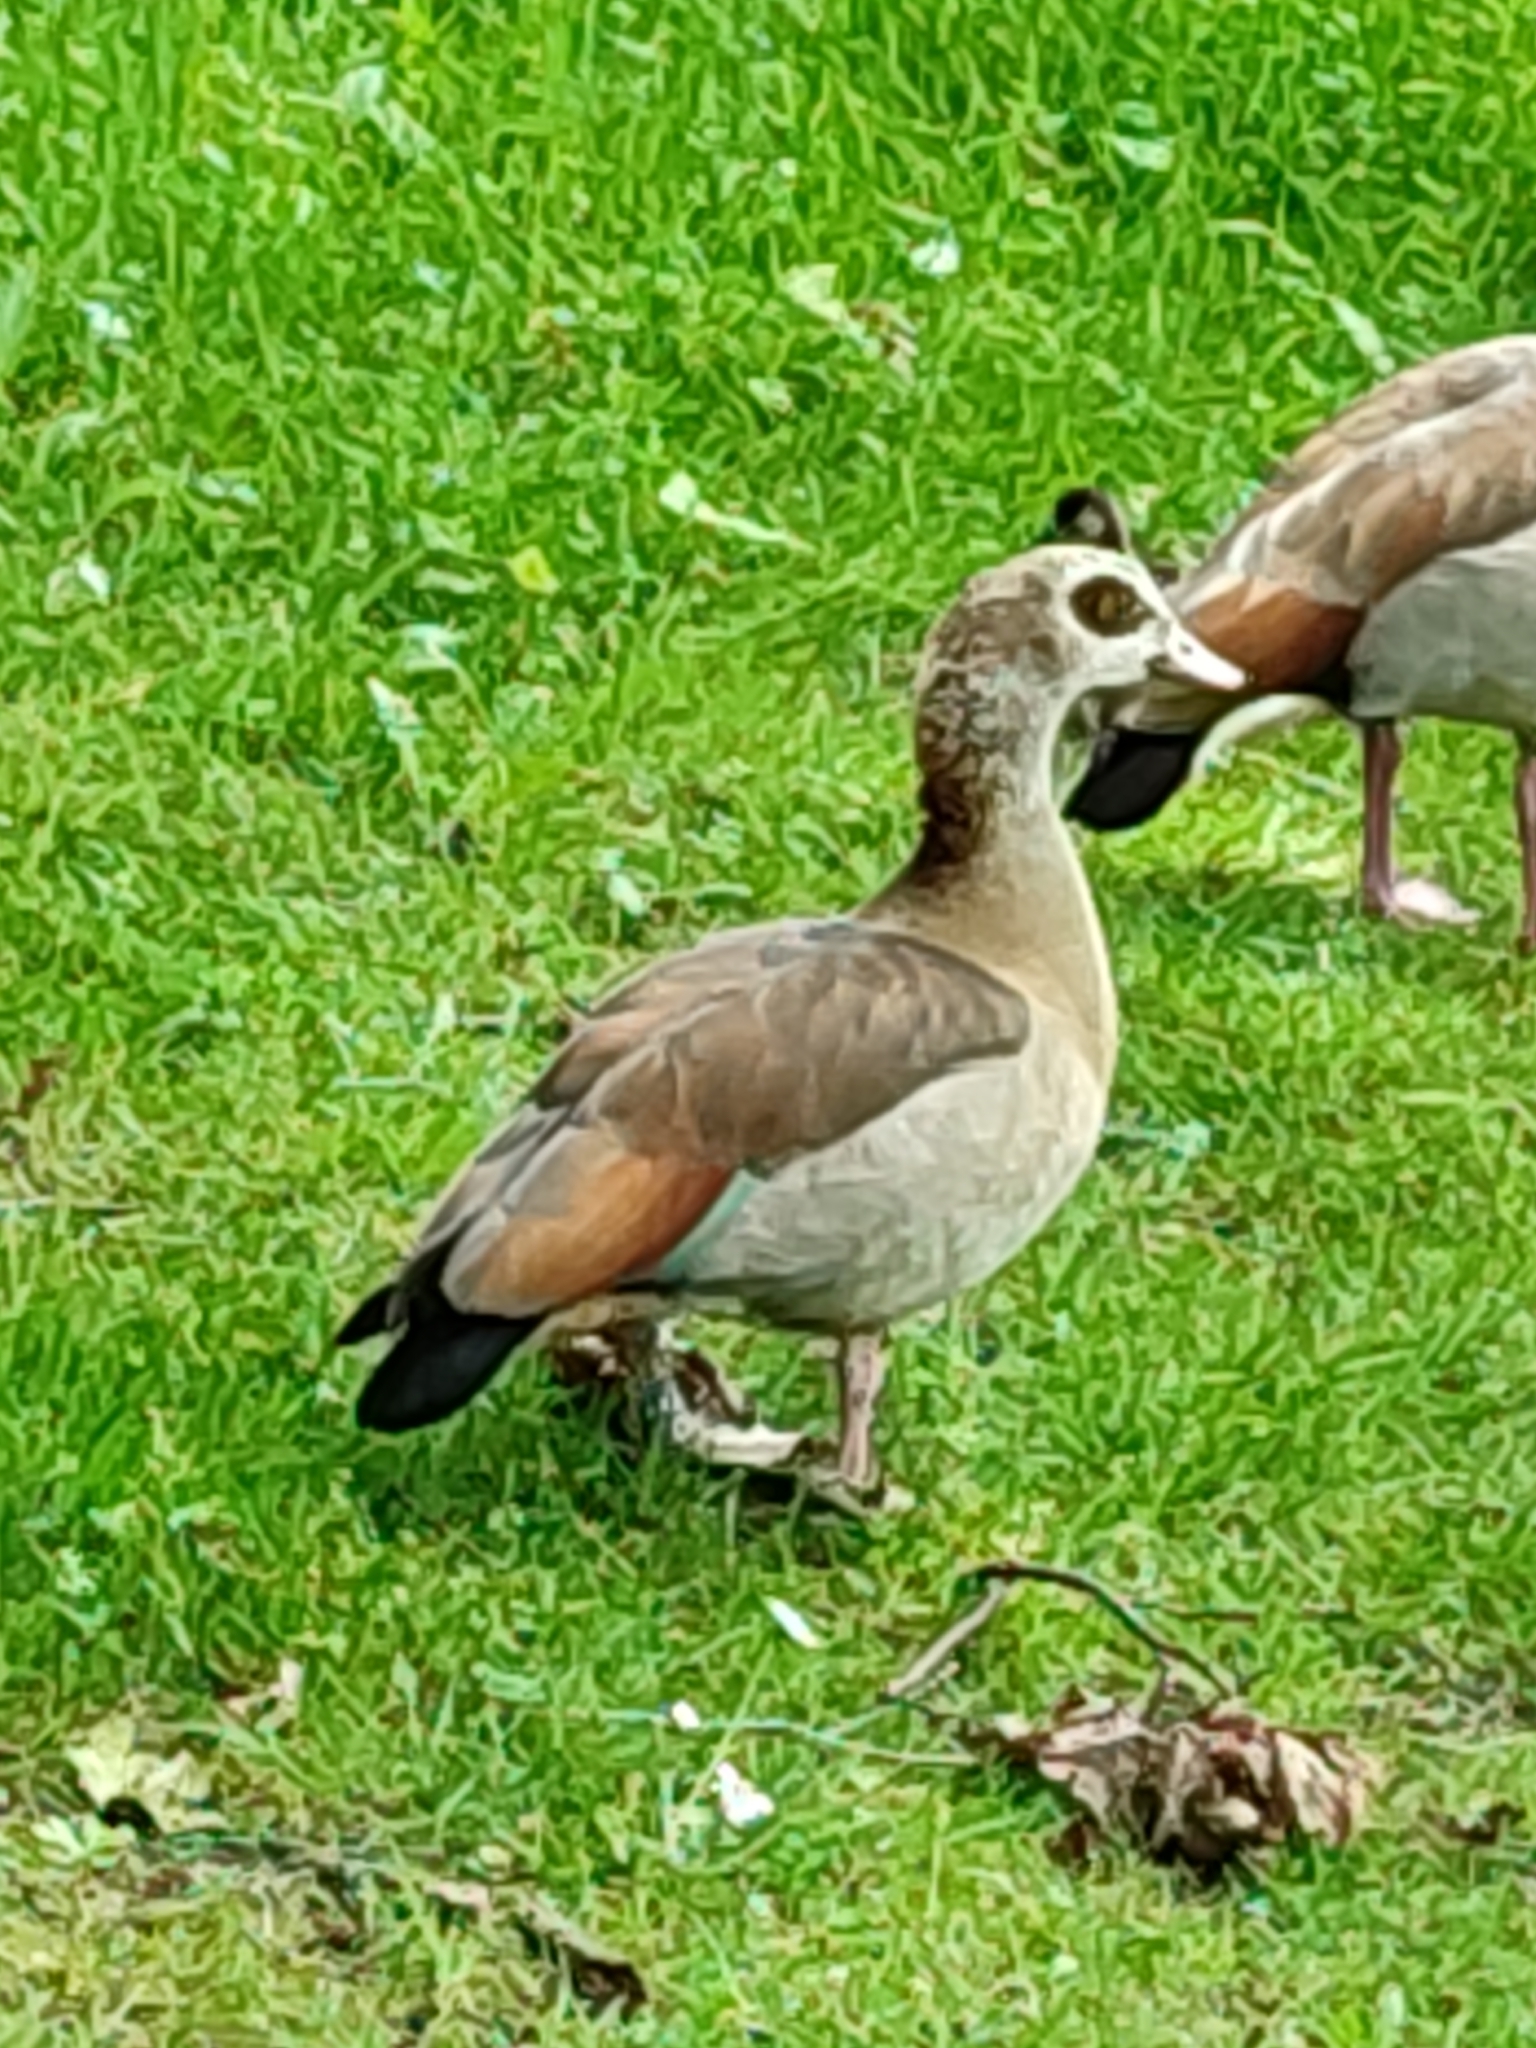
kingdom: Animalia
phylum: Chordata
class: Aves
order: Anseriformes
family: Anatidae
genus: Alopochen
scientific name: Alopochen aegyptiaca
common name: Egyptian goose
